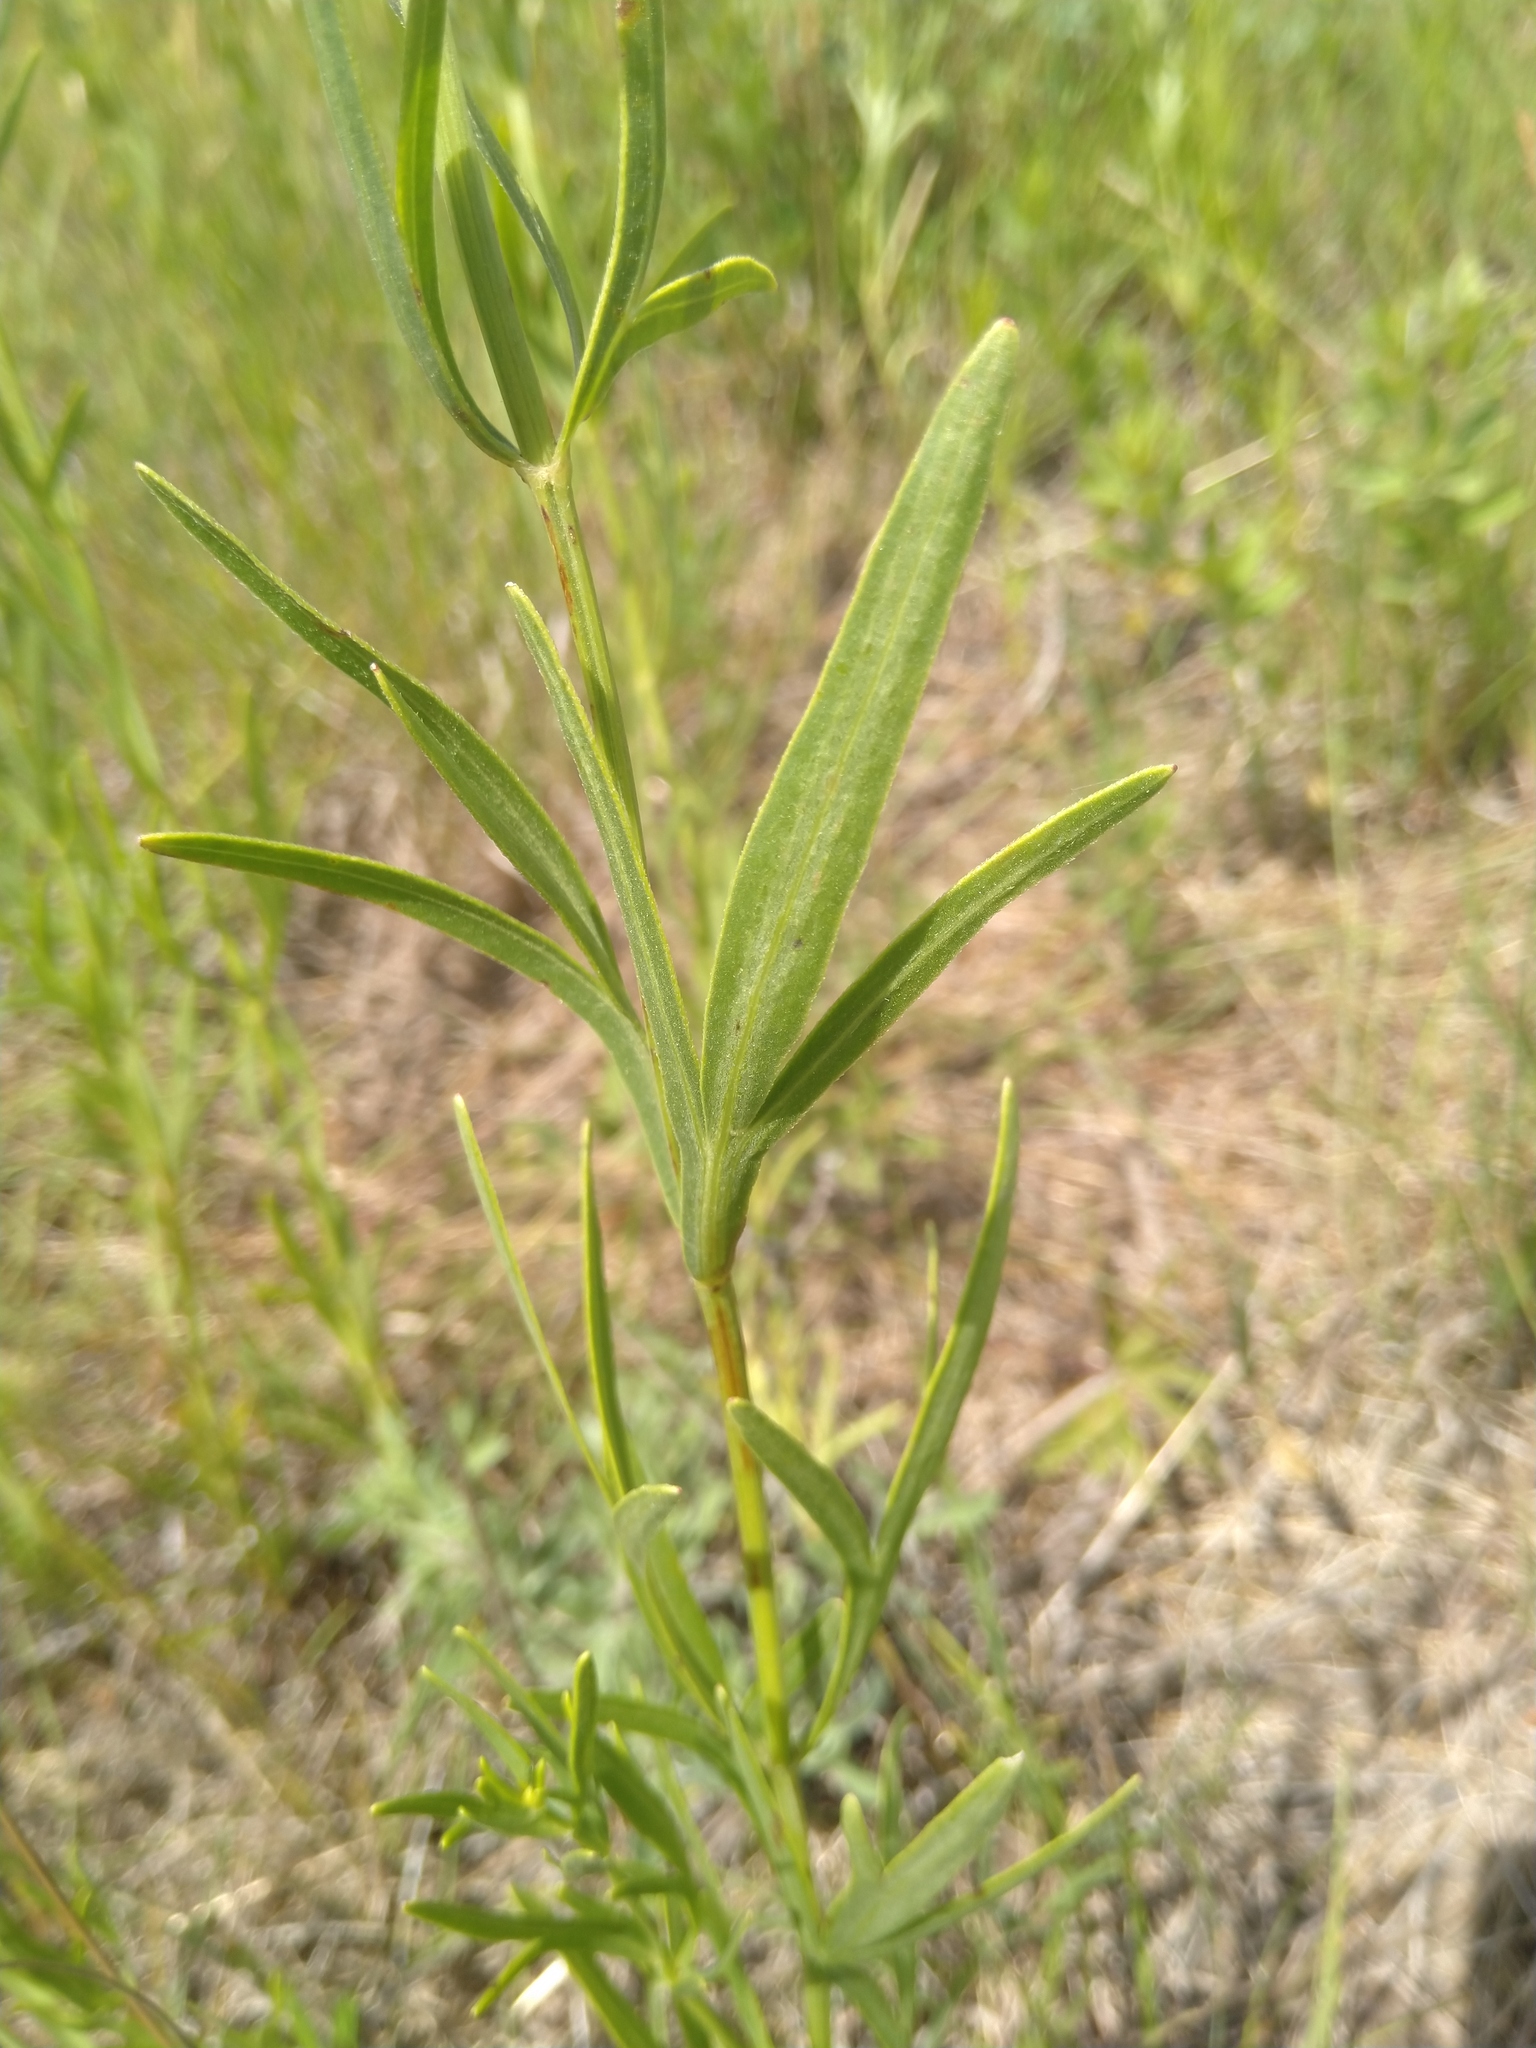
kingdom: Plantae
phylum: Tracheophyta
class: Magnoliopsida
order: Asterales
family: Asteraceae
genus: Coreopsis
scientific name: Coreopsis palmata
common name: Prairie coreopsis
